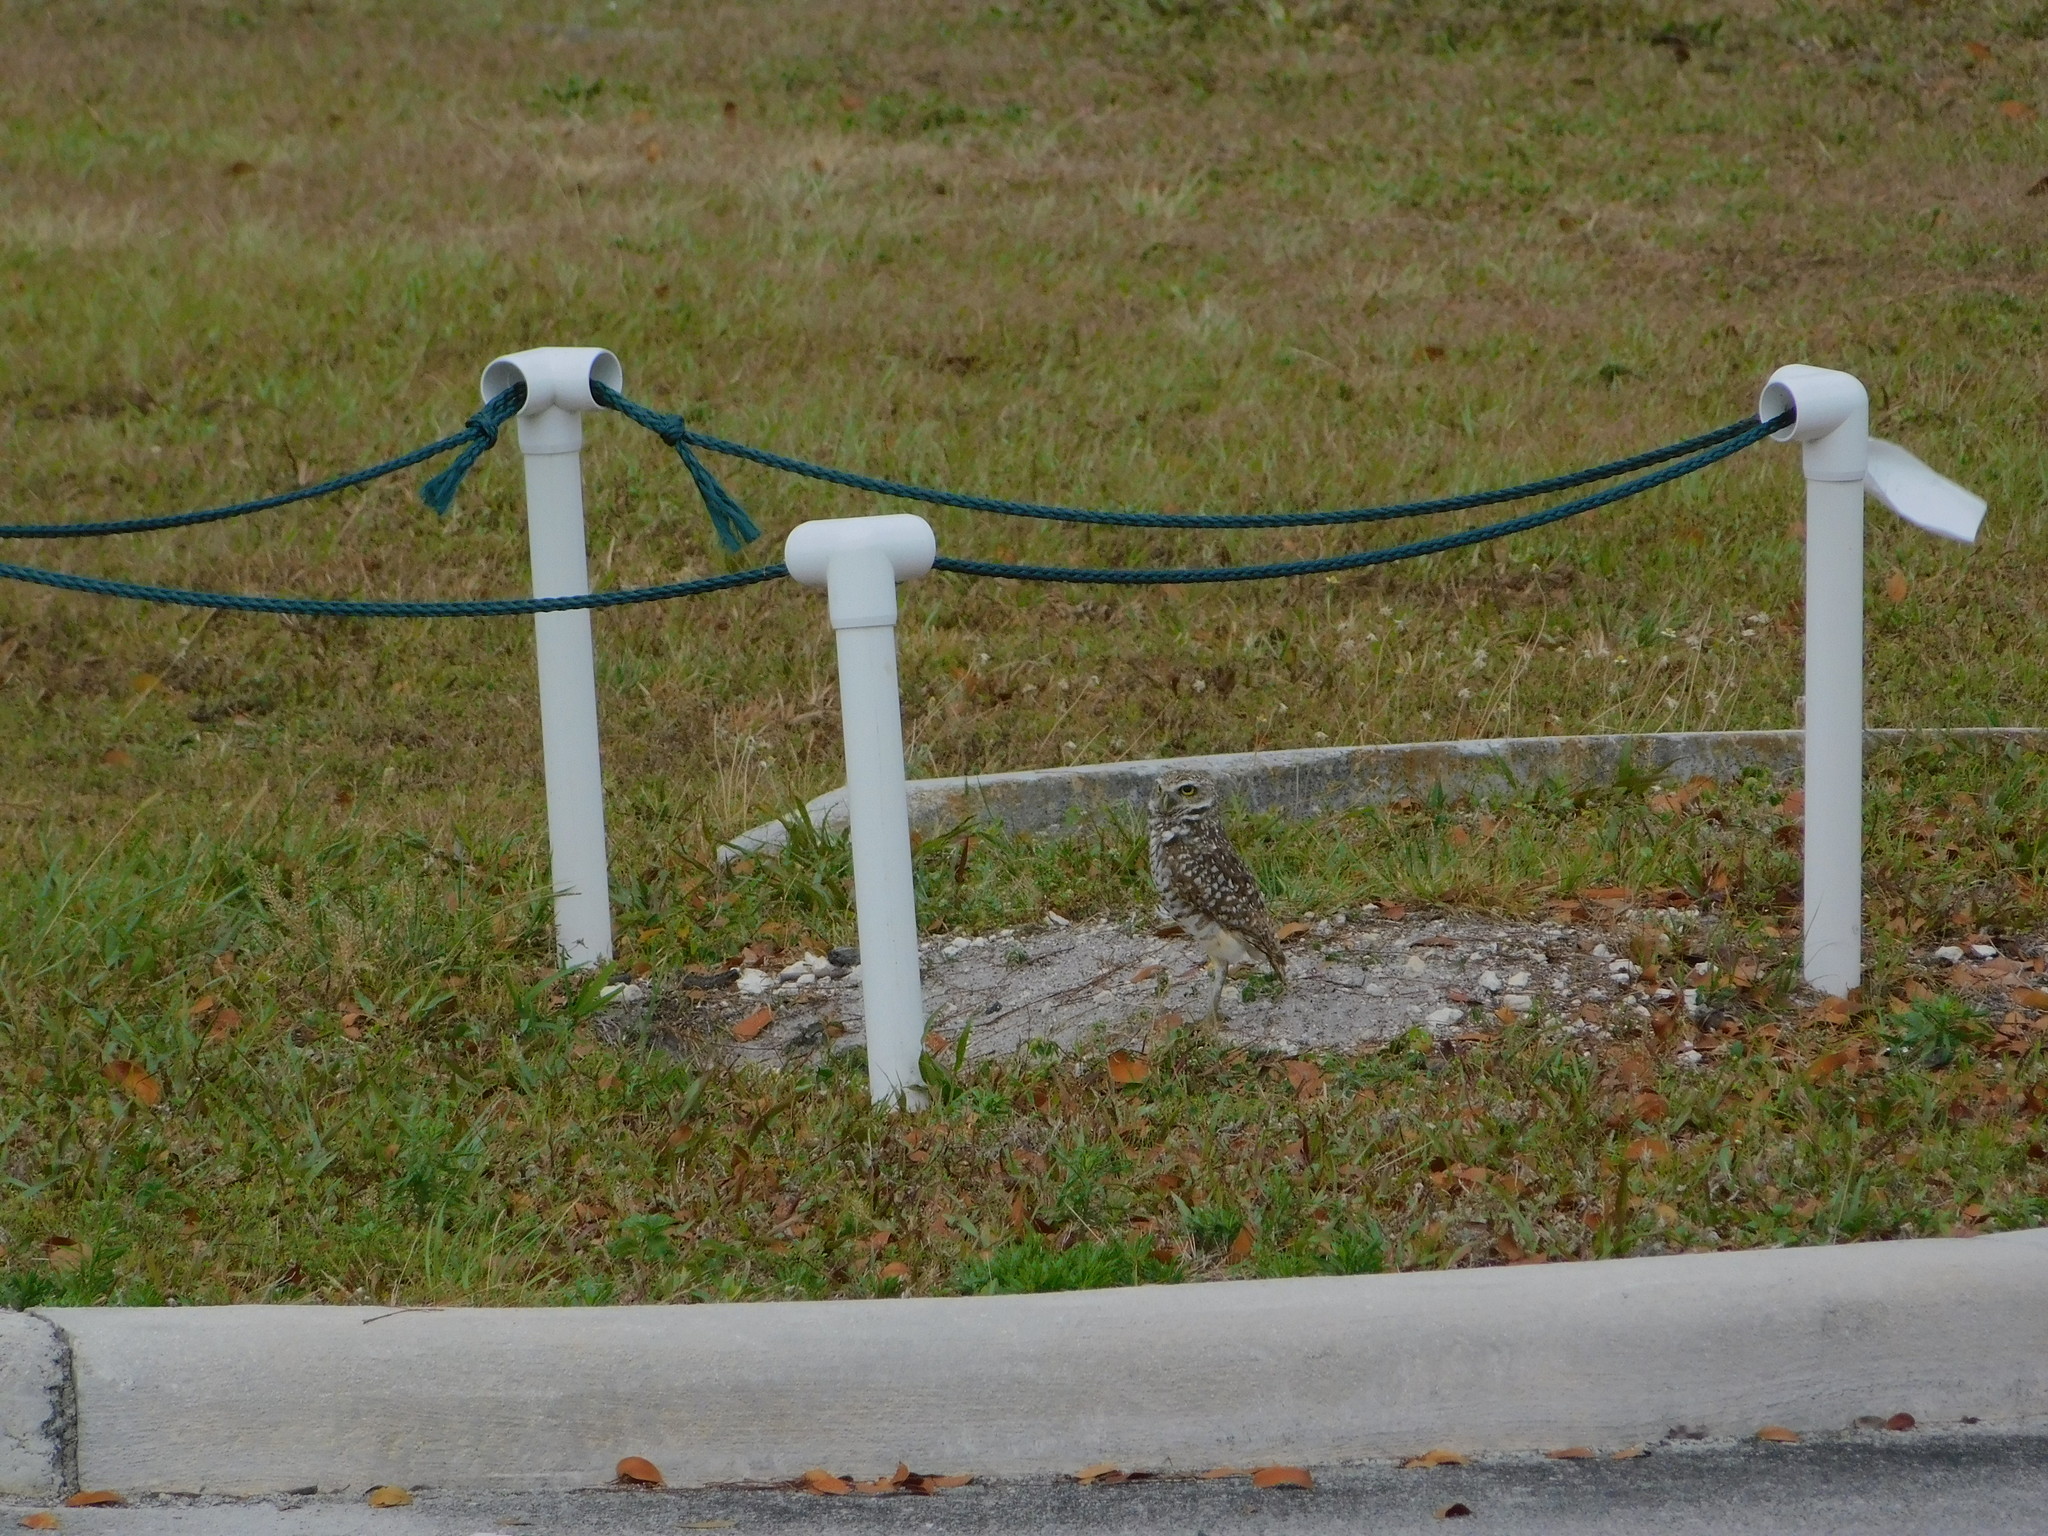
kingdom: Animalia
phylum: Chordata
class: Aves
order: Strigiformes
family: Strigidae
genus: Athene
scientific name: Athene cunicularia
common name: Burrowing owl
